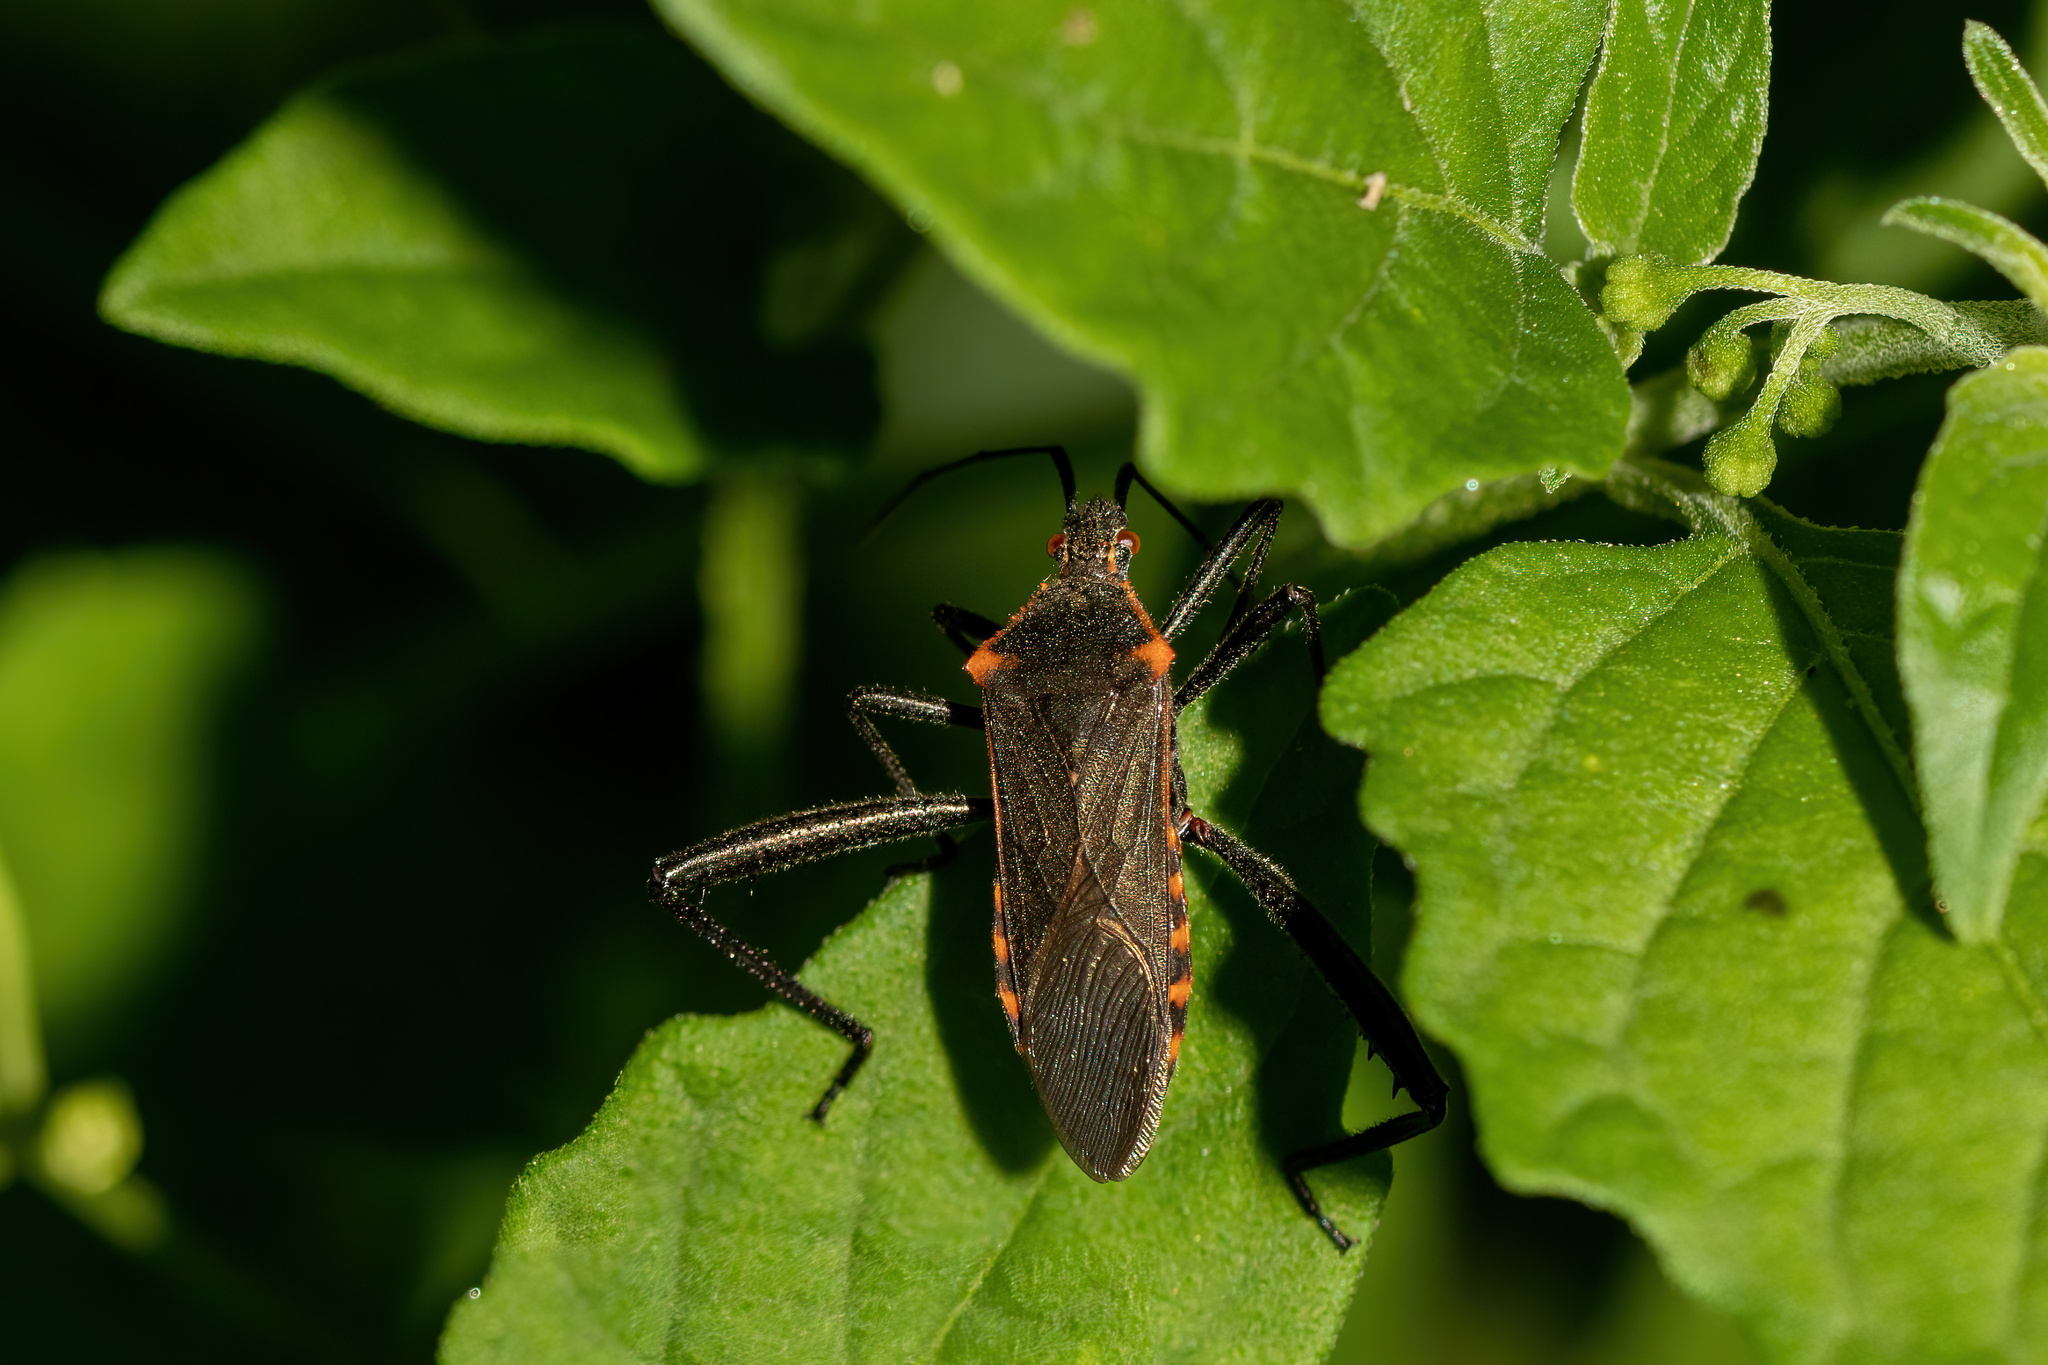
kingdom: Animalia
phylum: Arthropoda
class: Insecta
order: Hemiptera
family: Coreidae
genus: Phthiacnemia
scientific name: Phthiacnemia picta
